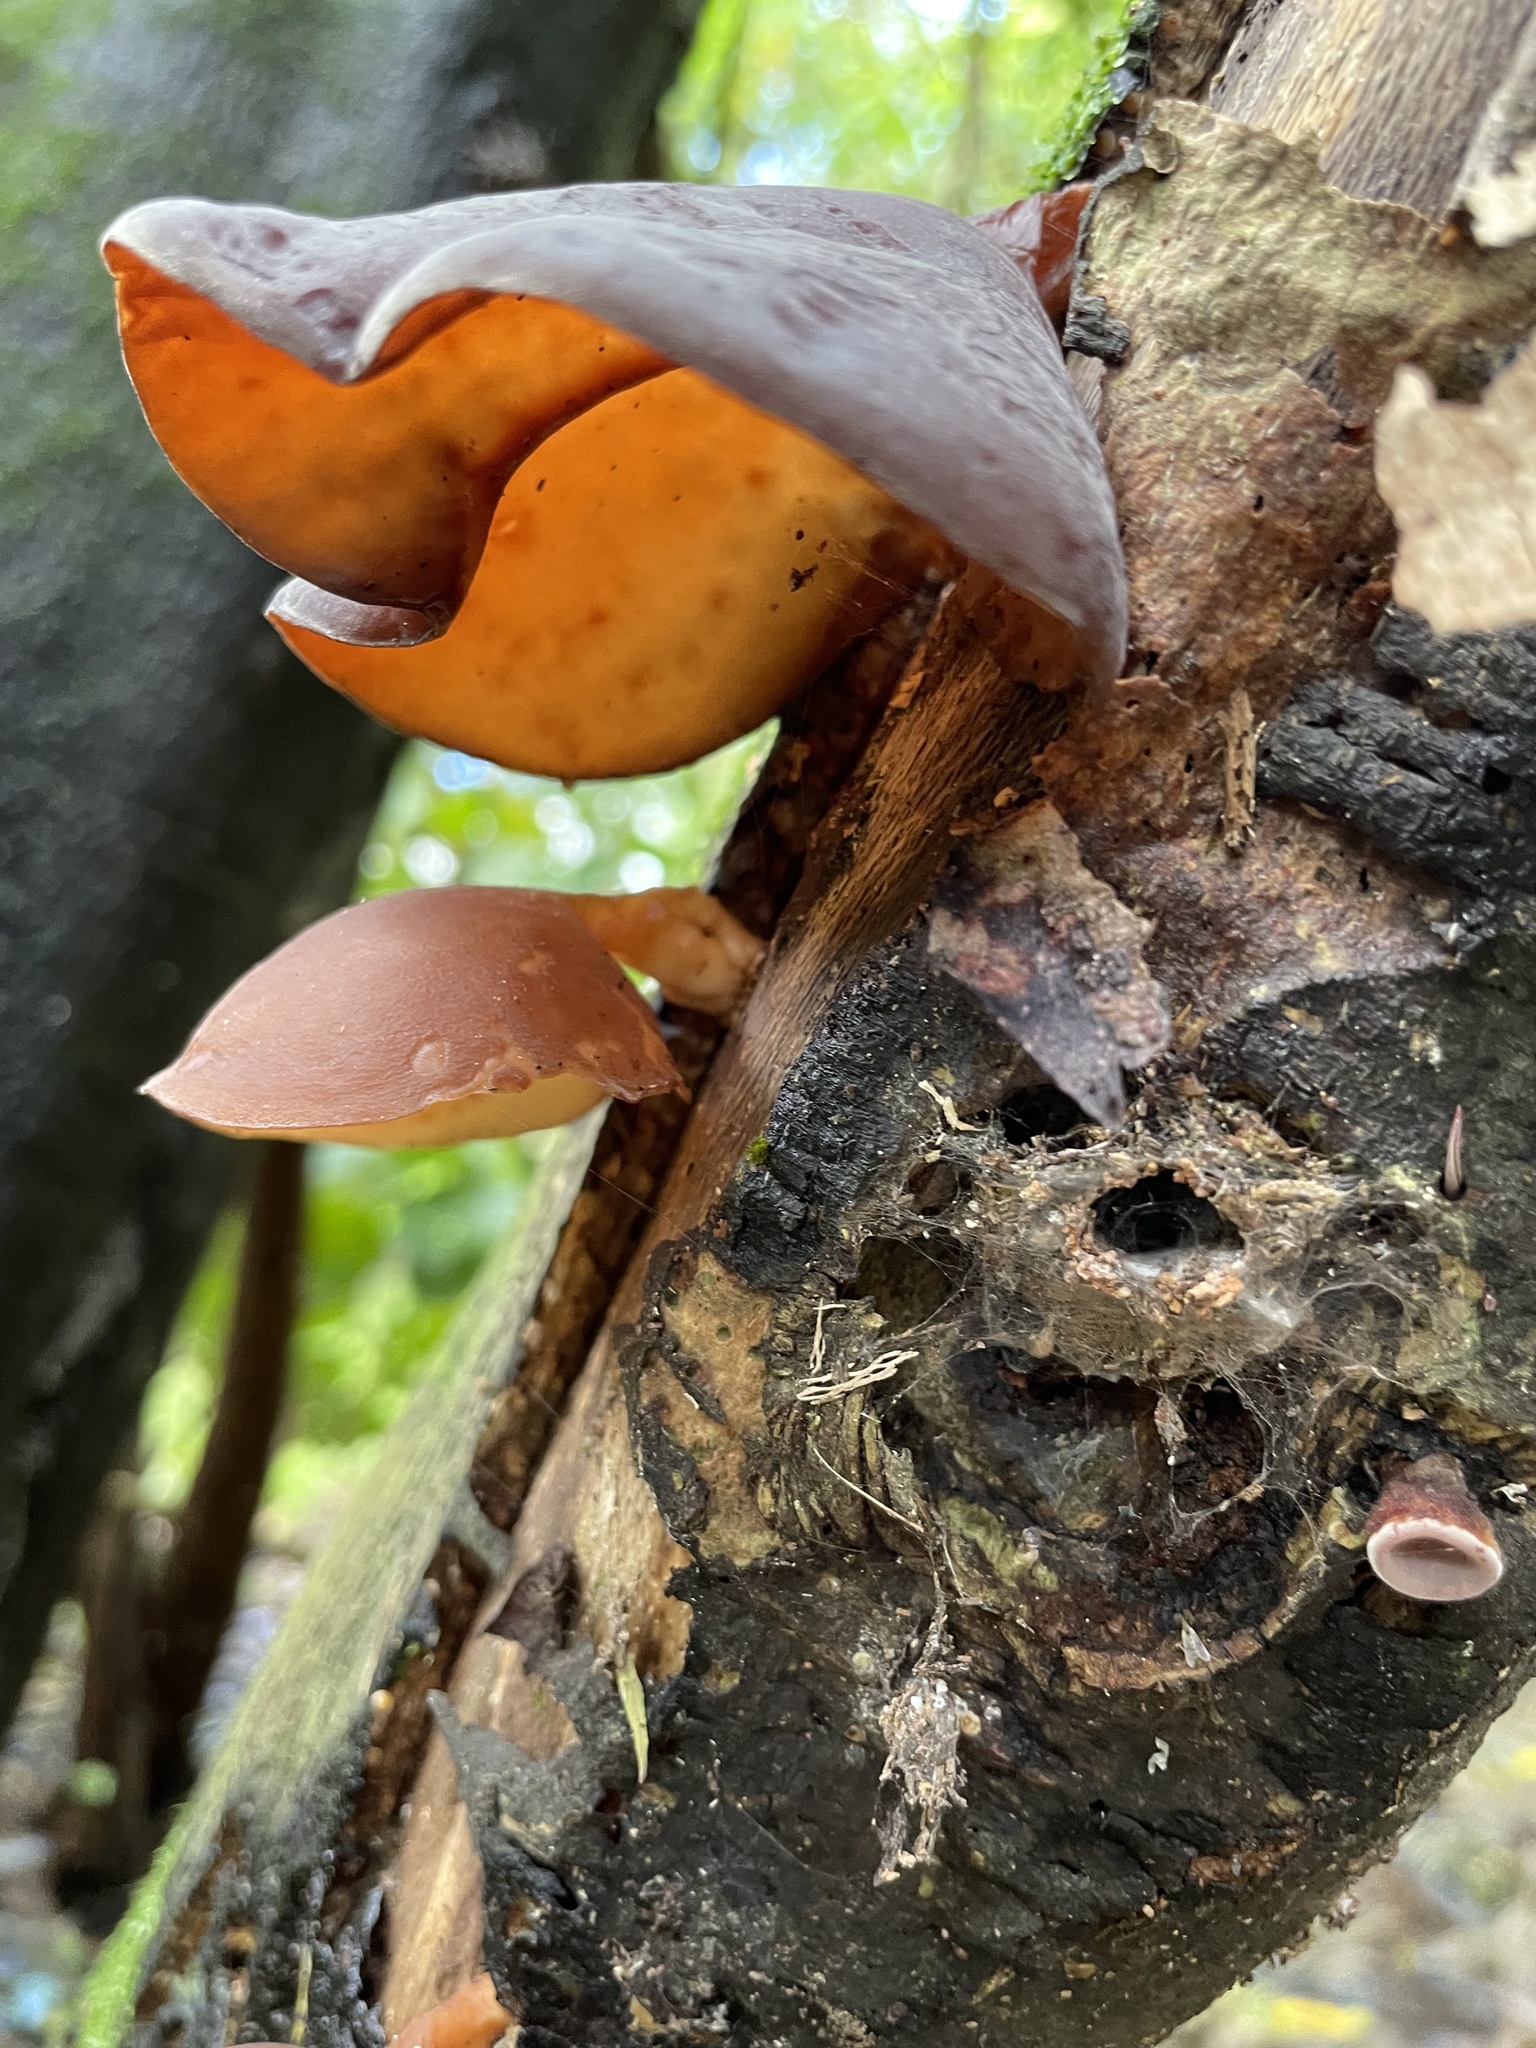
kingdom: Fungi
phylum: Basidiomycota
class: Agaricomycetes
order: Auriculariales
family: Auriculariaceae
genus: Auricularia
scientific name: Auricularia cornea
